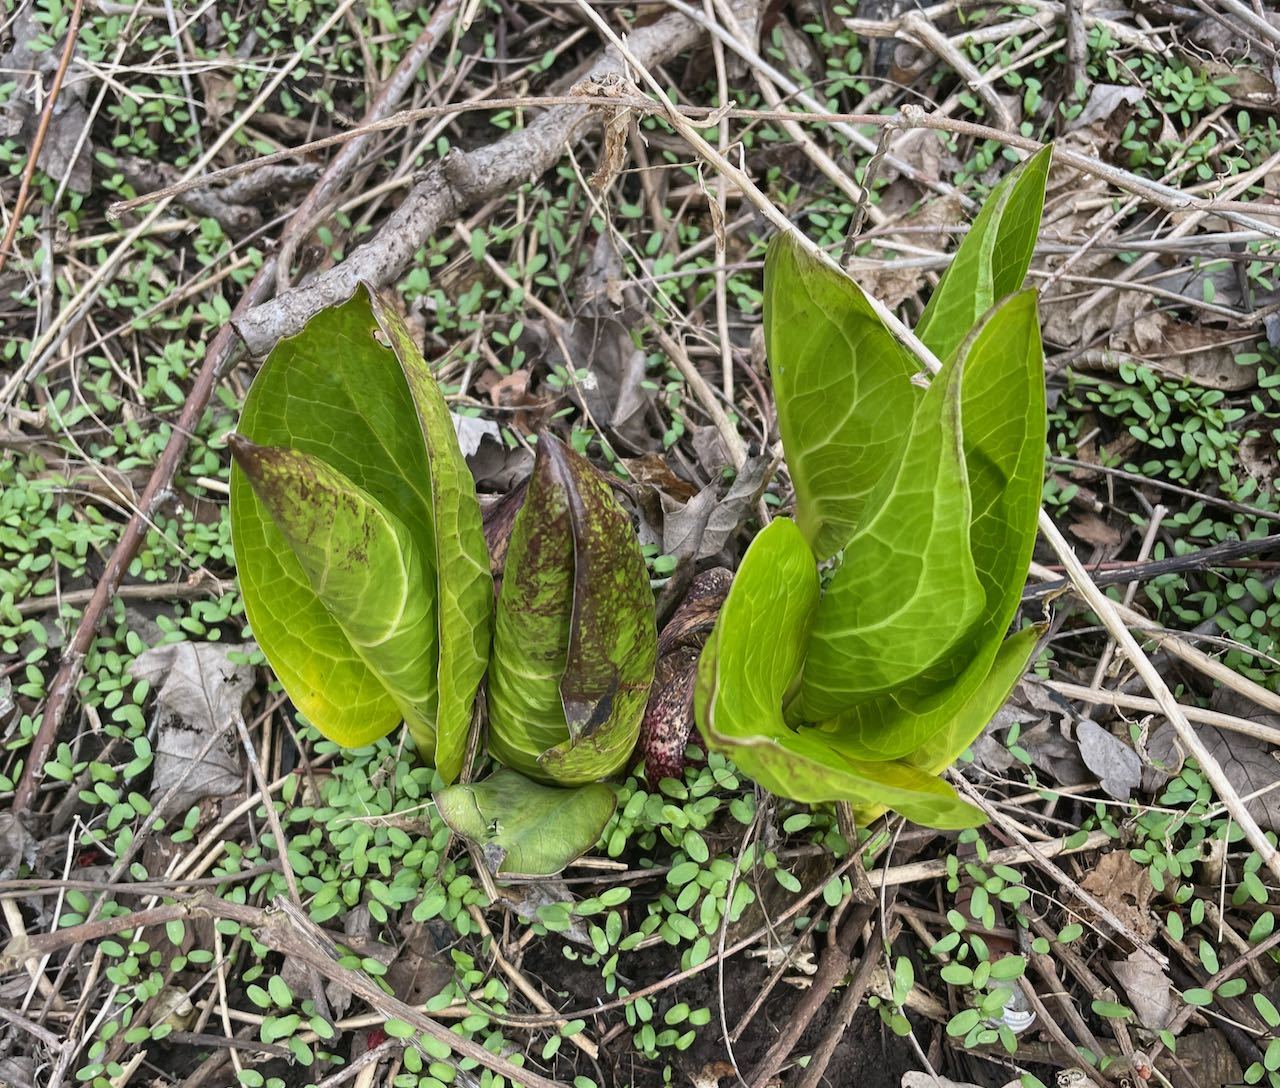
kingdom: Plantae
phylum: Tracheophyta
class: Liliopsida
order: Alismatales
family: Araceae
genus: Symplocarpus
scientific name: Symplocarpus foetidus
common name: Eastern skunk cabbage
